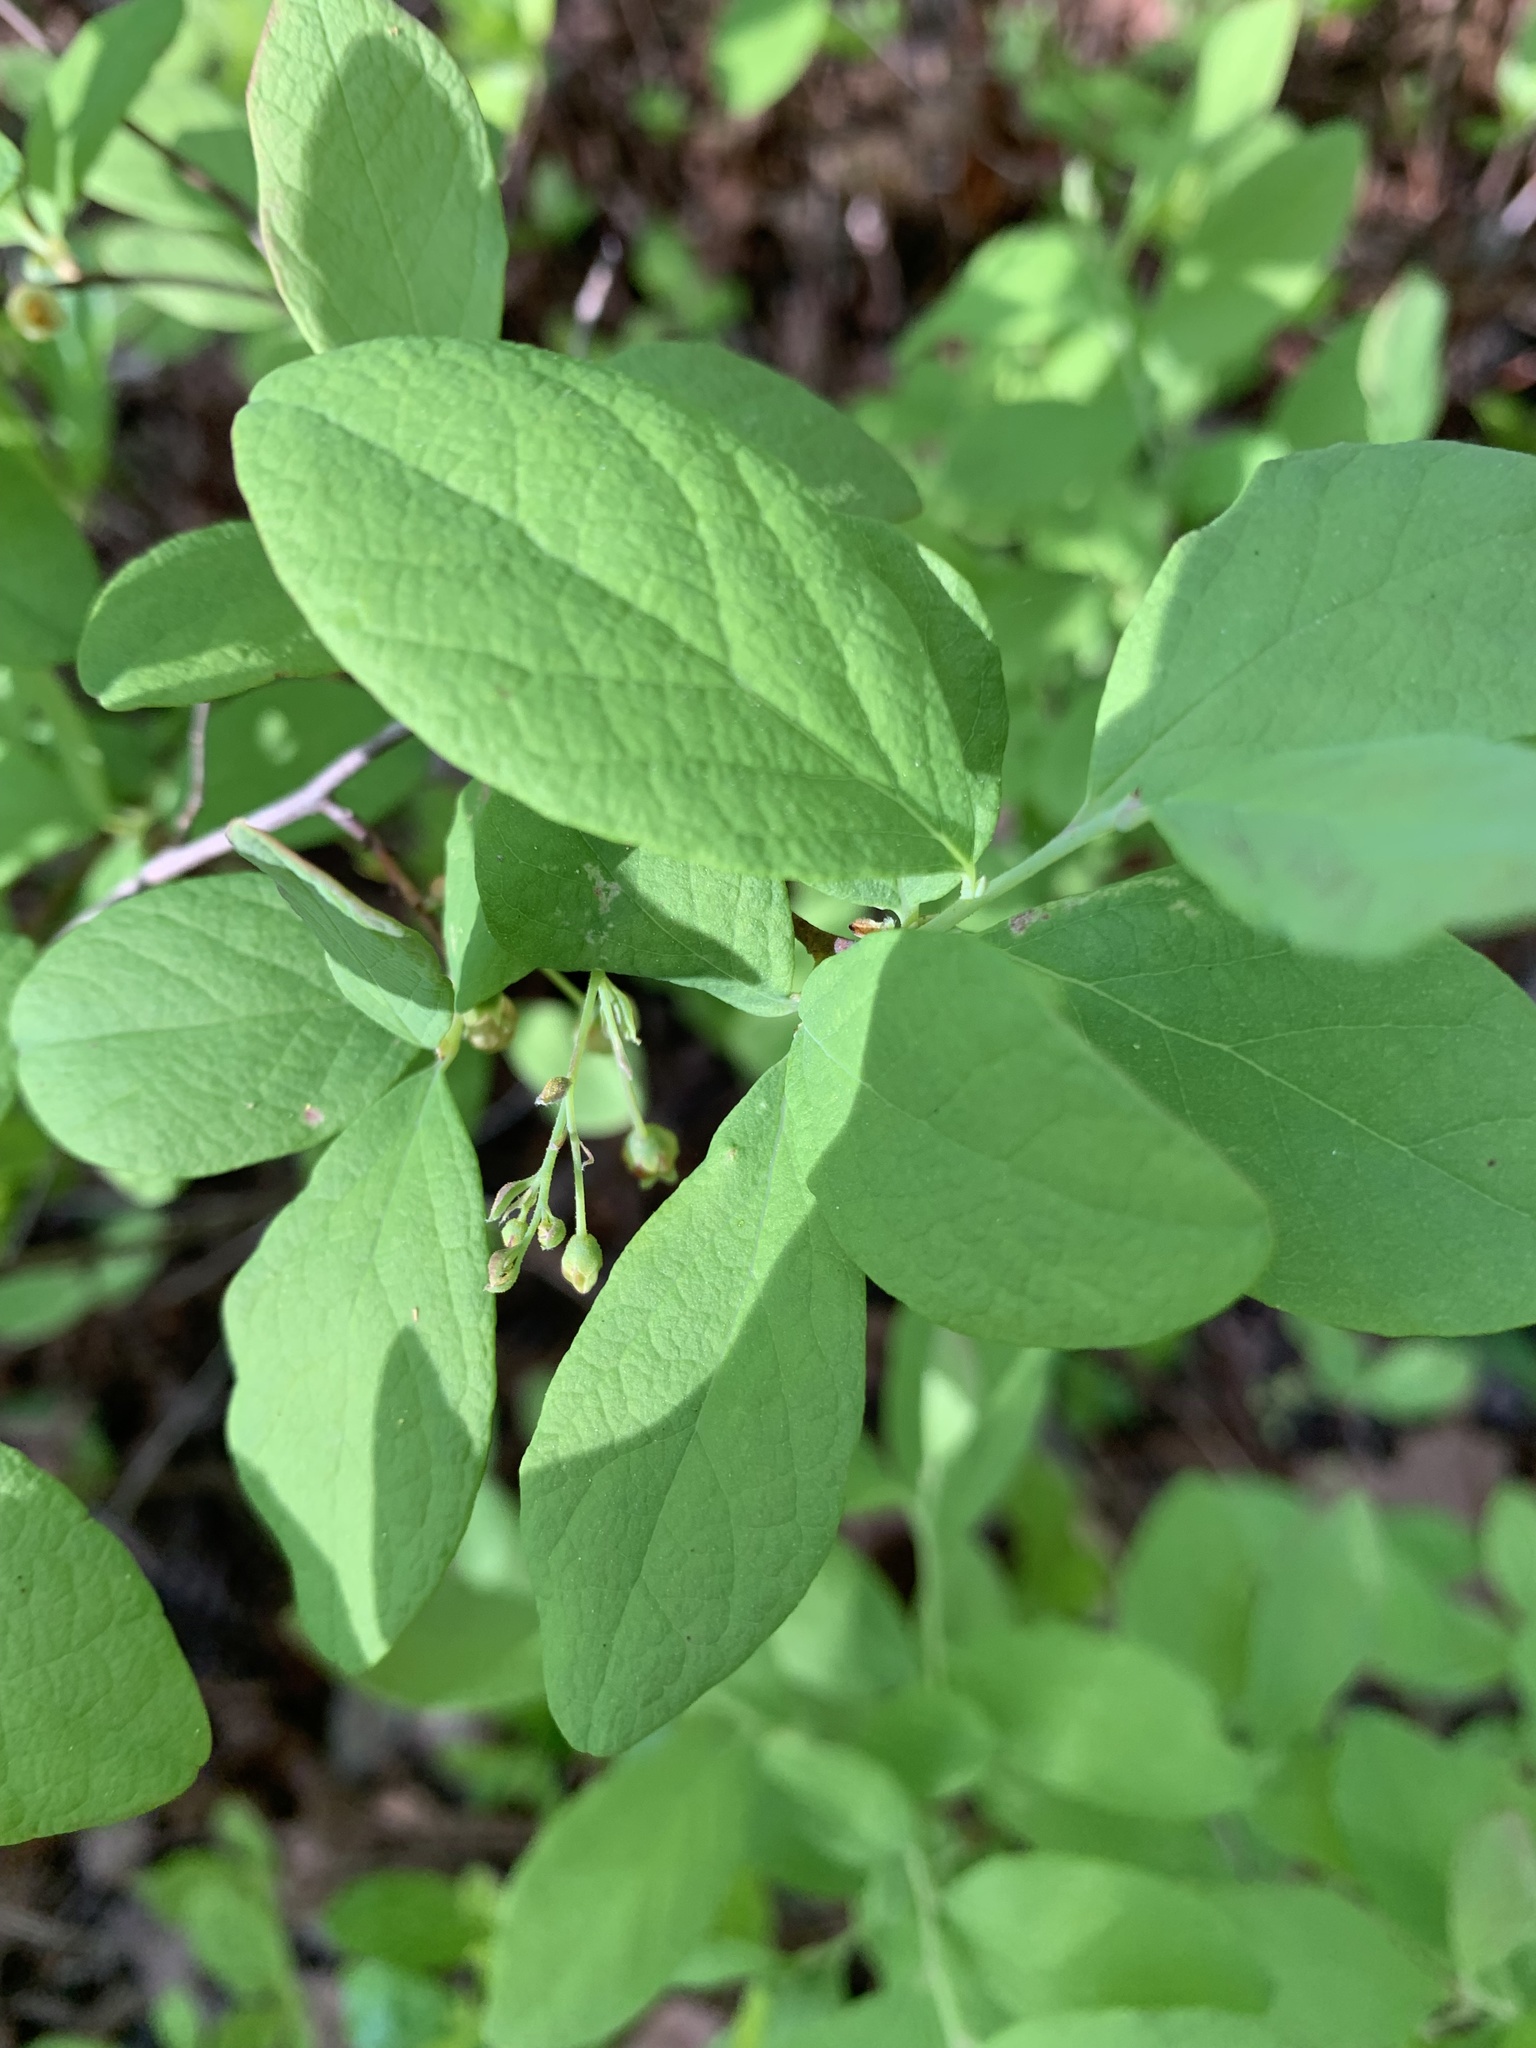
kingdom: Plantae
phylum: Tracheophyta
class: Magnoliopsida
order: Ericales
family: Ericaceae
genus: Gaylussacia
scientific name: Gaylussacia frondosa
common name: Dangleberry
